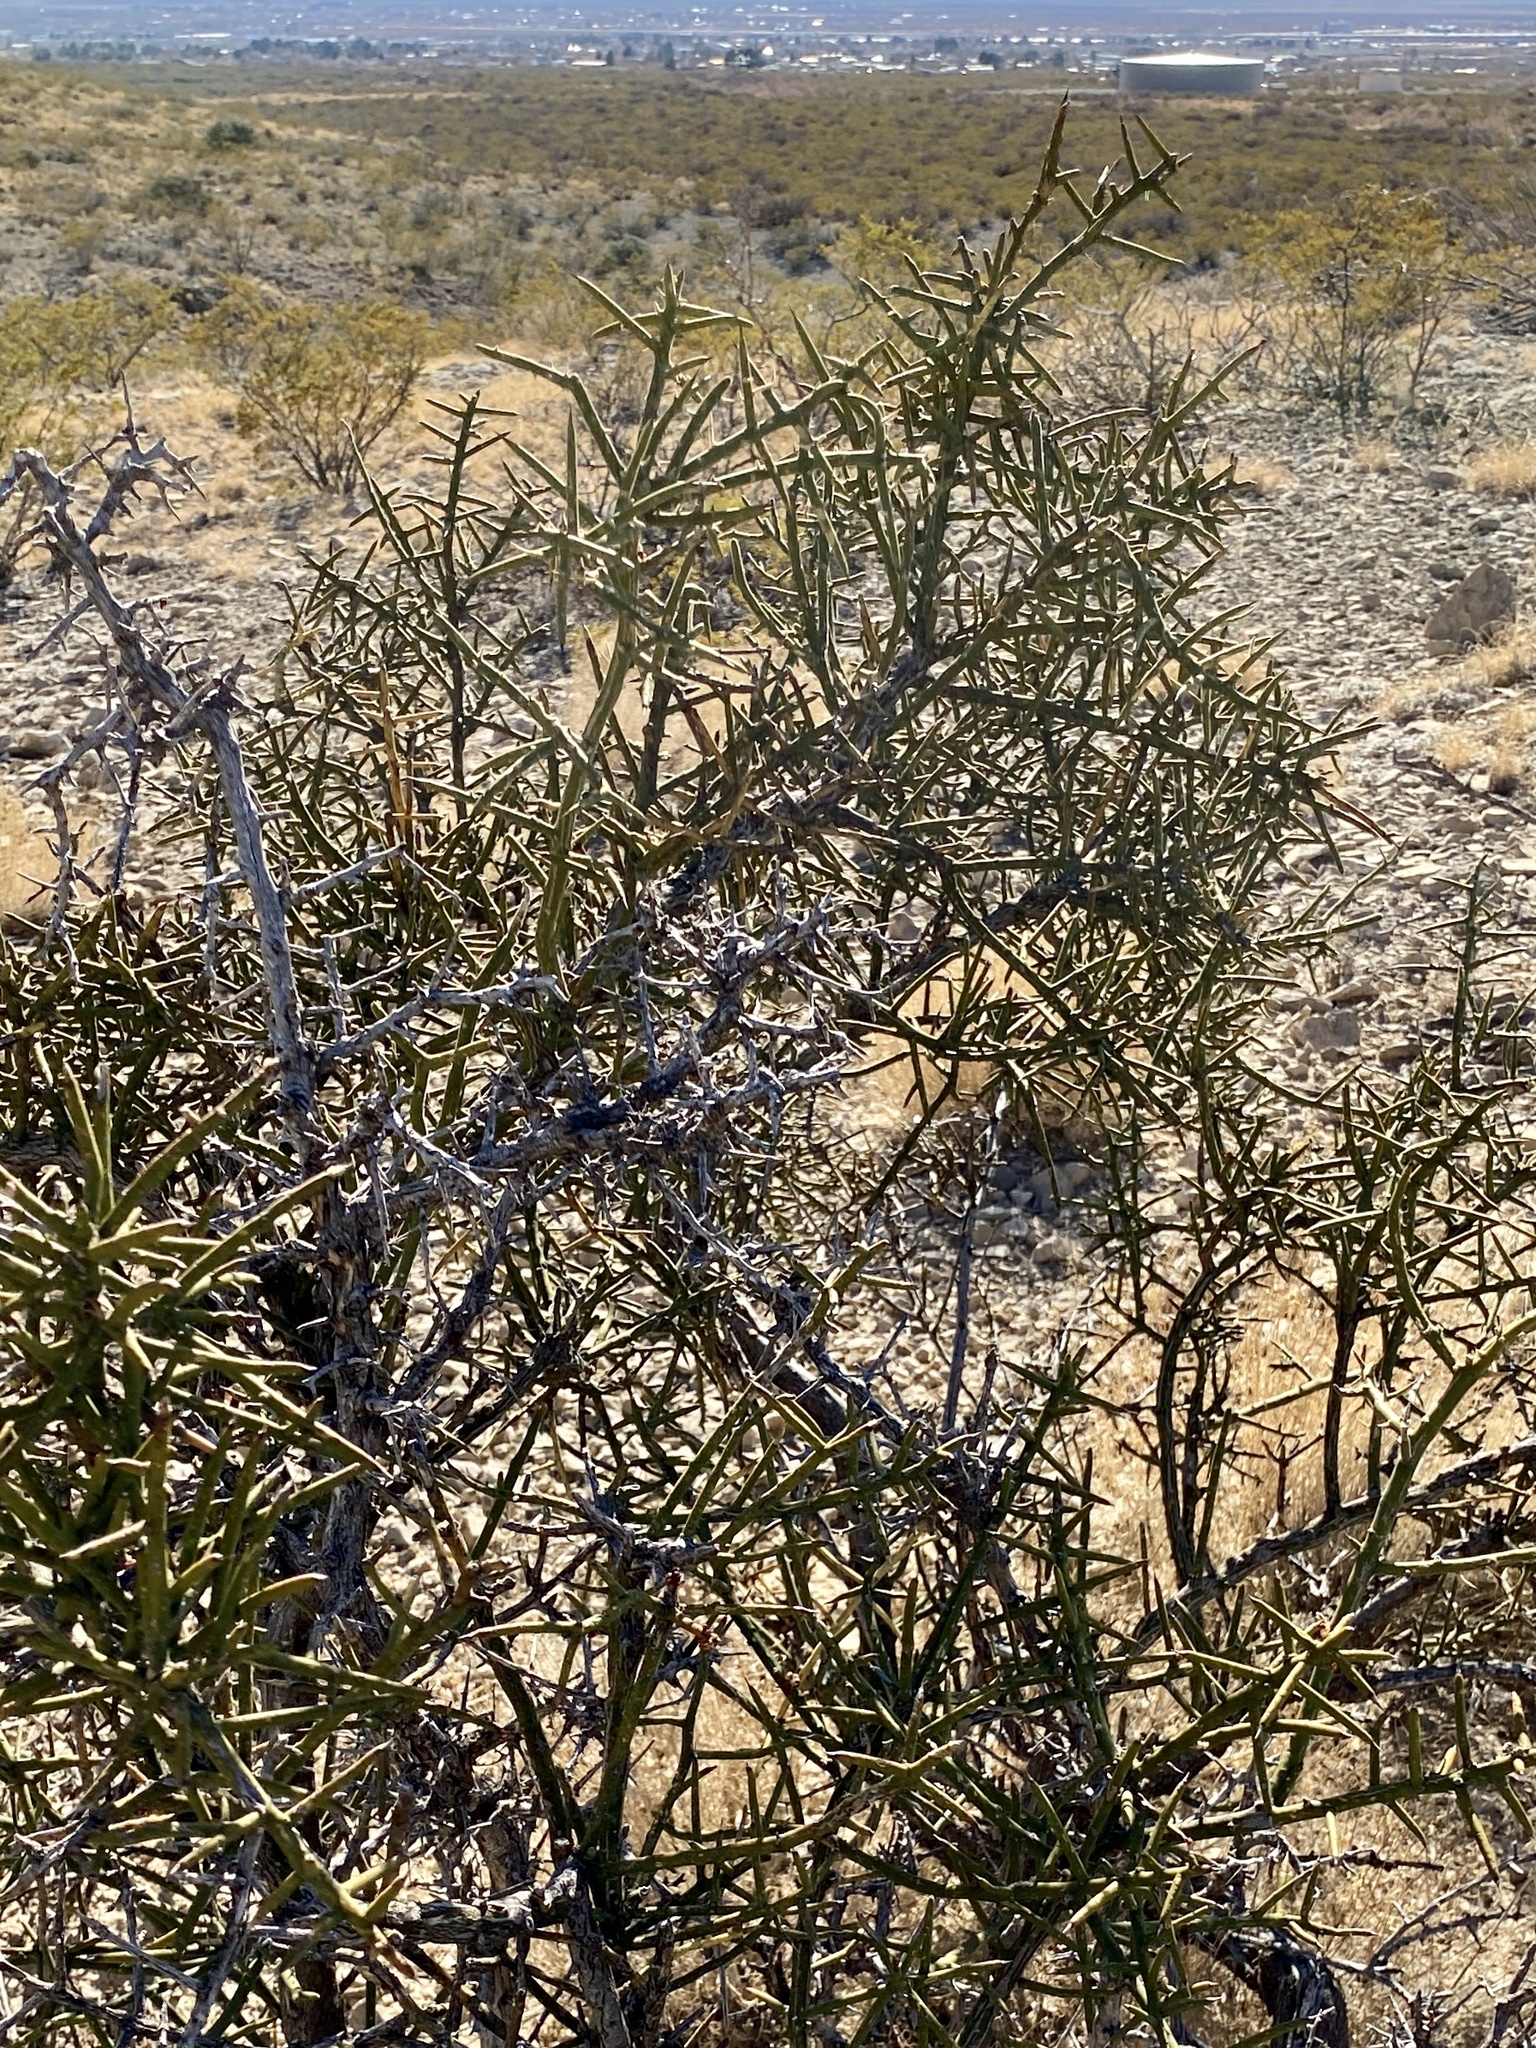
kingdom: Plantae
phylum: Tracheophyta
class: Magnoliopsida
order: Brassicales
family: Koeberliniaceae
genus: Koeberlinia
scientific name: Koeberlinia spinosa
